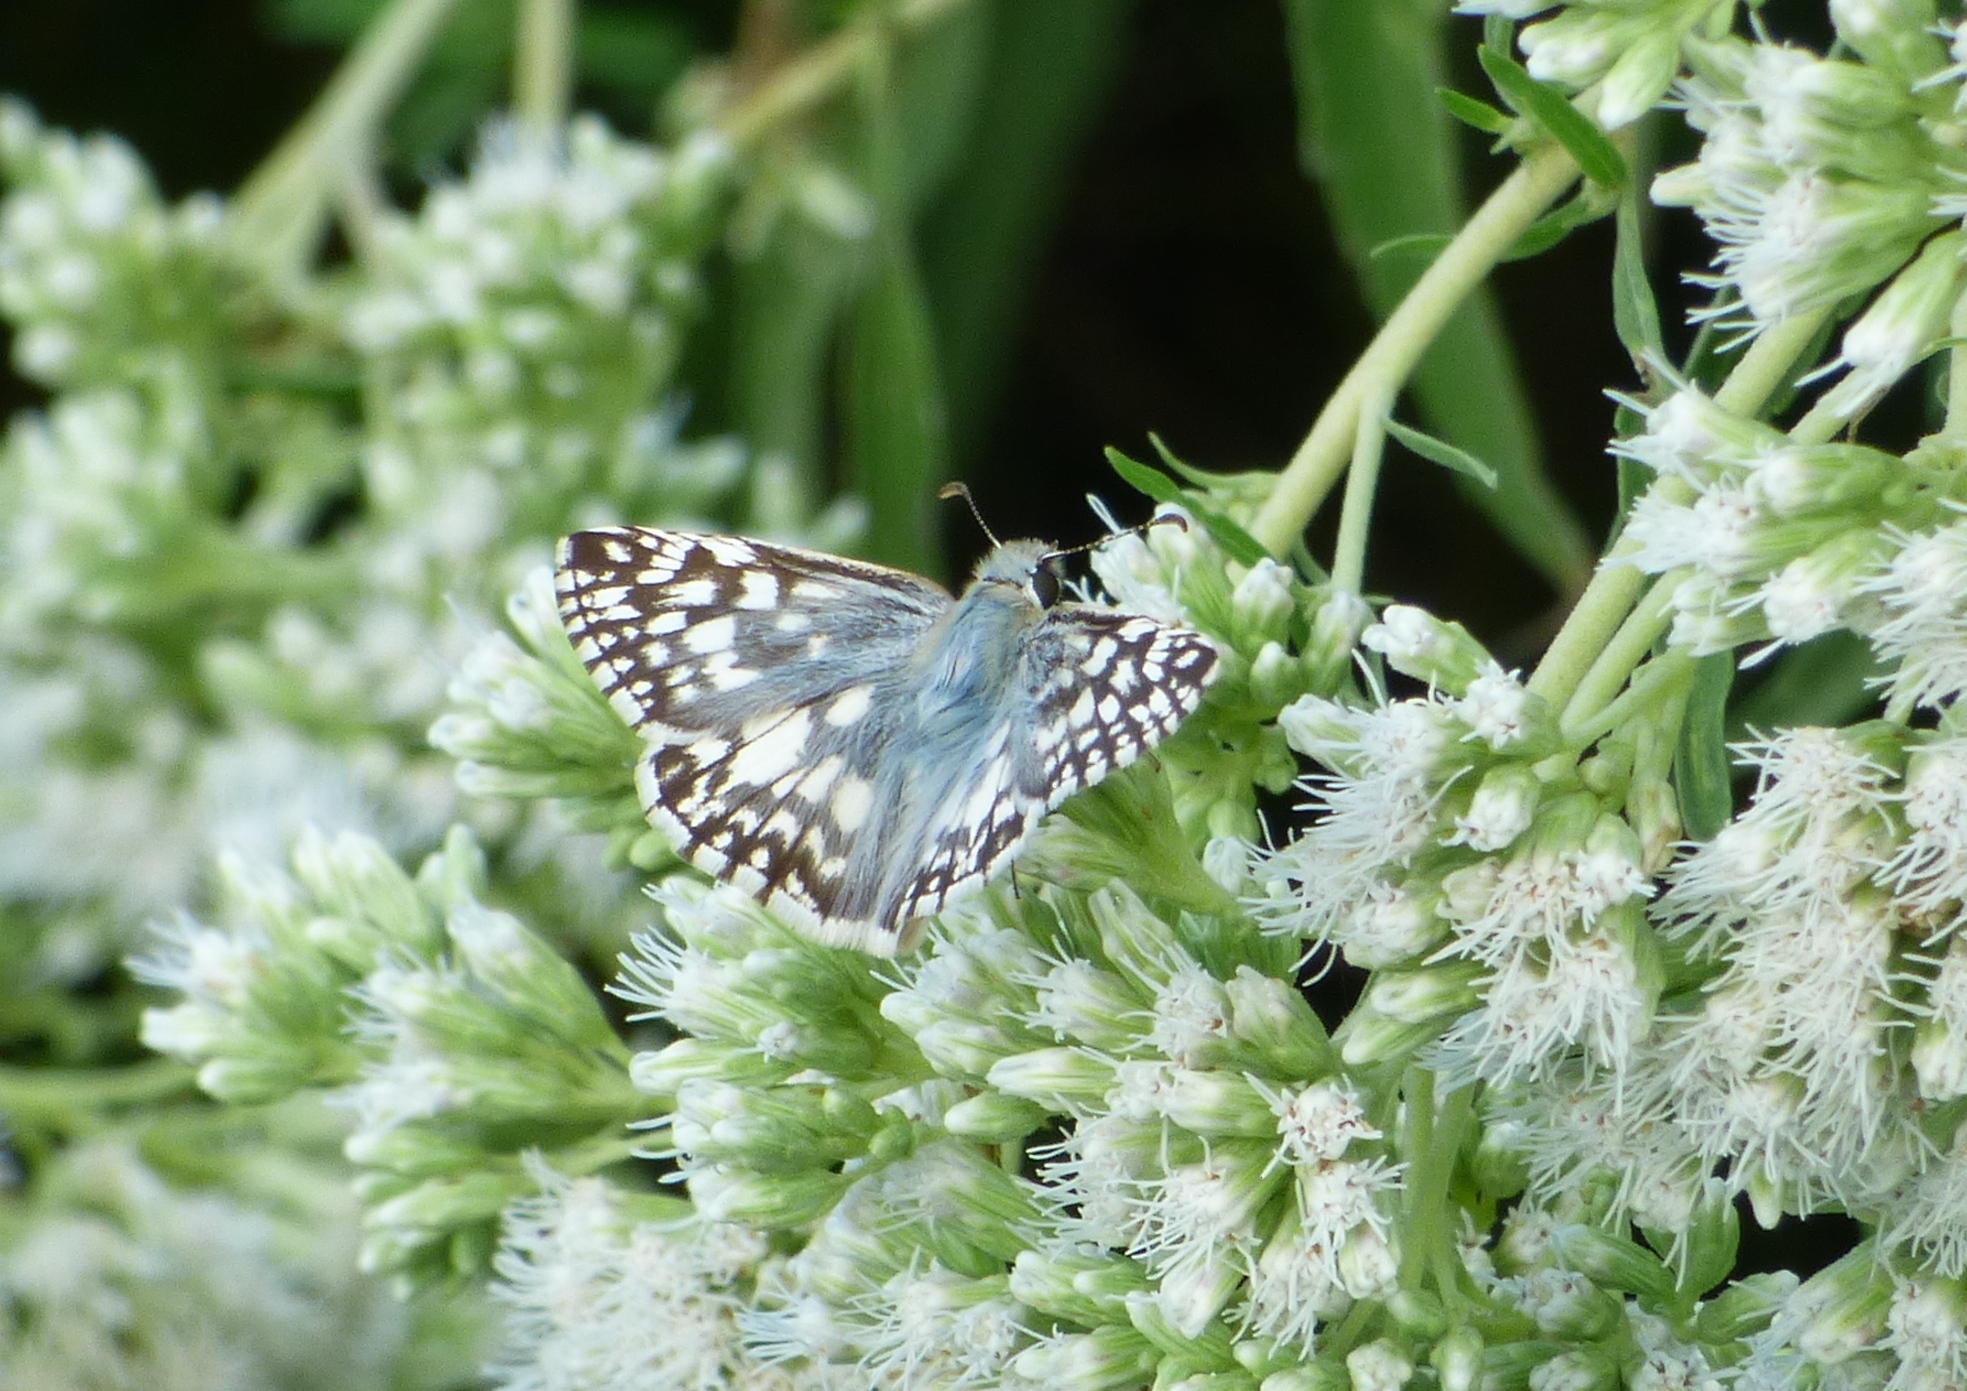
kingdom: Animalia
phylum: Arthropoda
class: Insecta
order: Lepidoptera
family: Hesperiidae
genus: Heliopetes
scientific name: Heliopetes americanus
